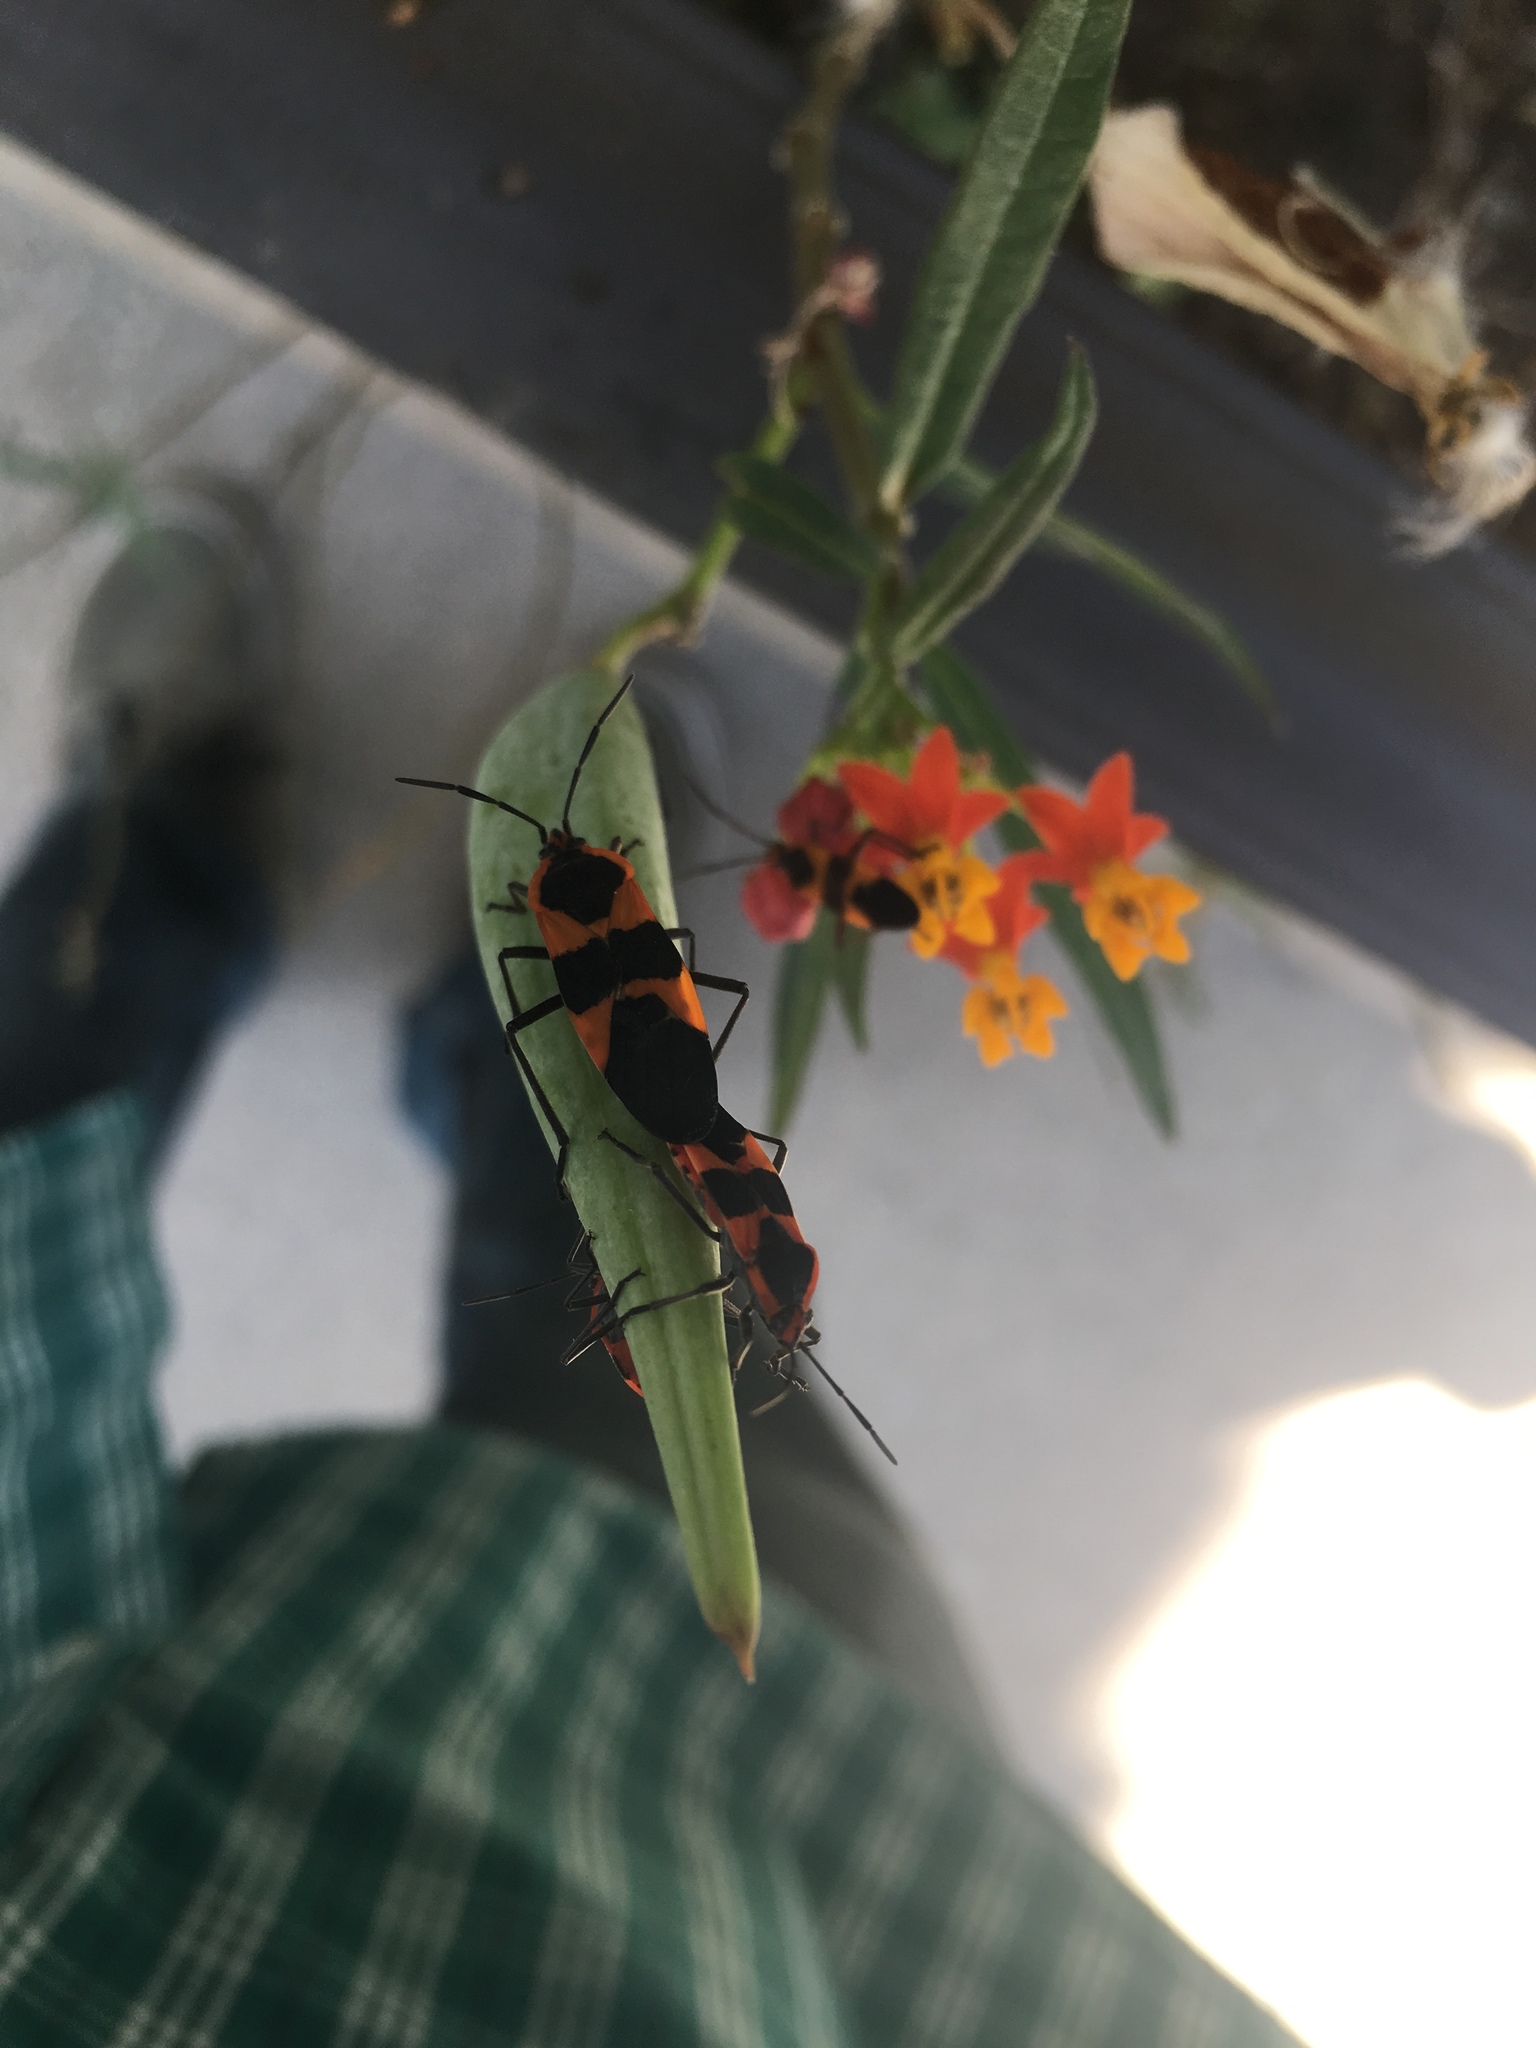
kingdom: Animalia
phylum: Arthropoda
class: Insecta
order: Hemiptera
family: Lygaeidae
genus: Oncopeltus
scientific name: Oncopeltus fasciatus
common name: Large milkweed bug
